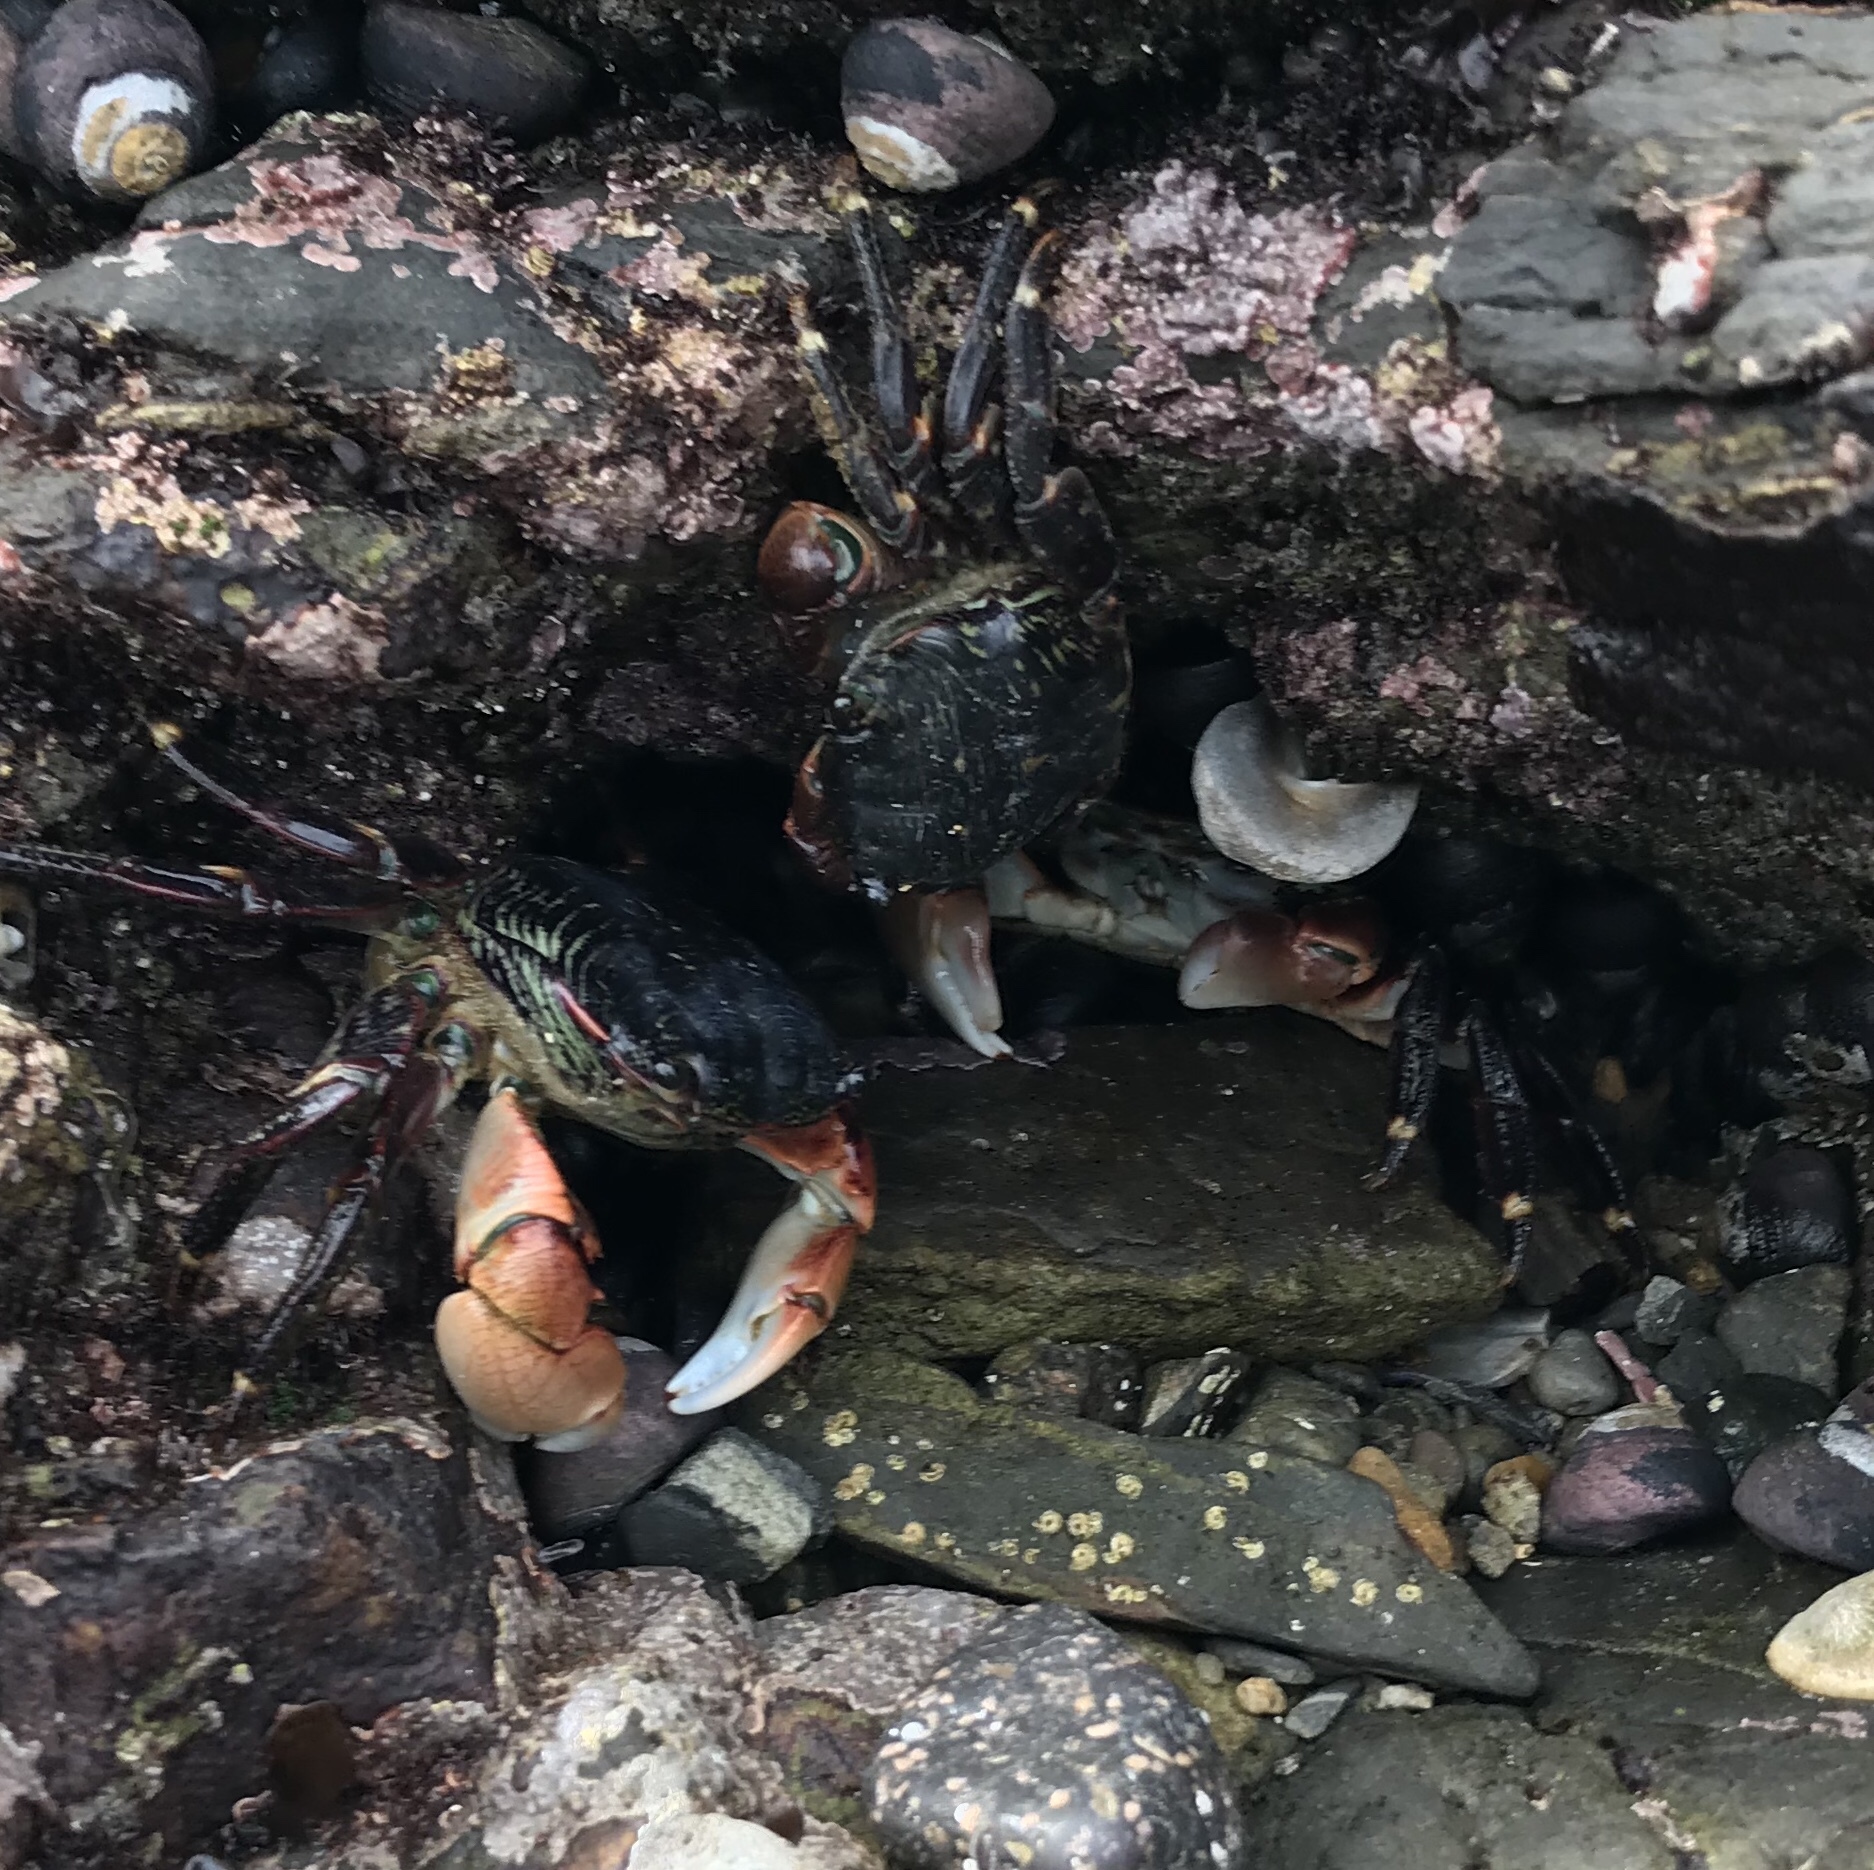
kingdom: Animalia
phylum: Arthropoda
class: Malacostraca
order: Decapoda
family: Grapsidae
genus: Pachygrapsus
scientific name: Pachygrapsus crassipes
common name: Striped shore crab
